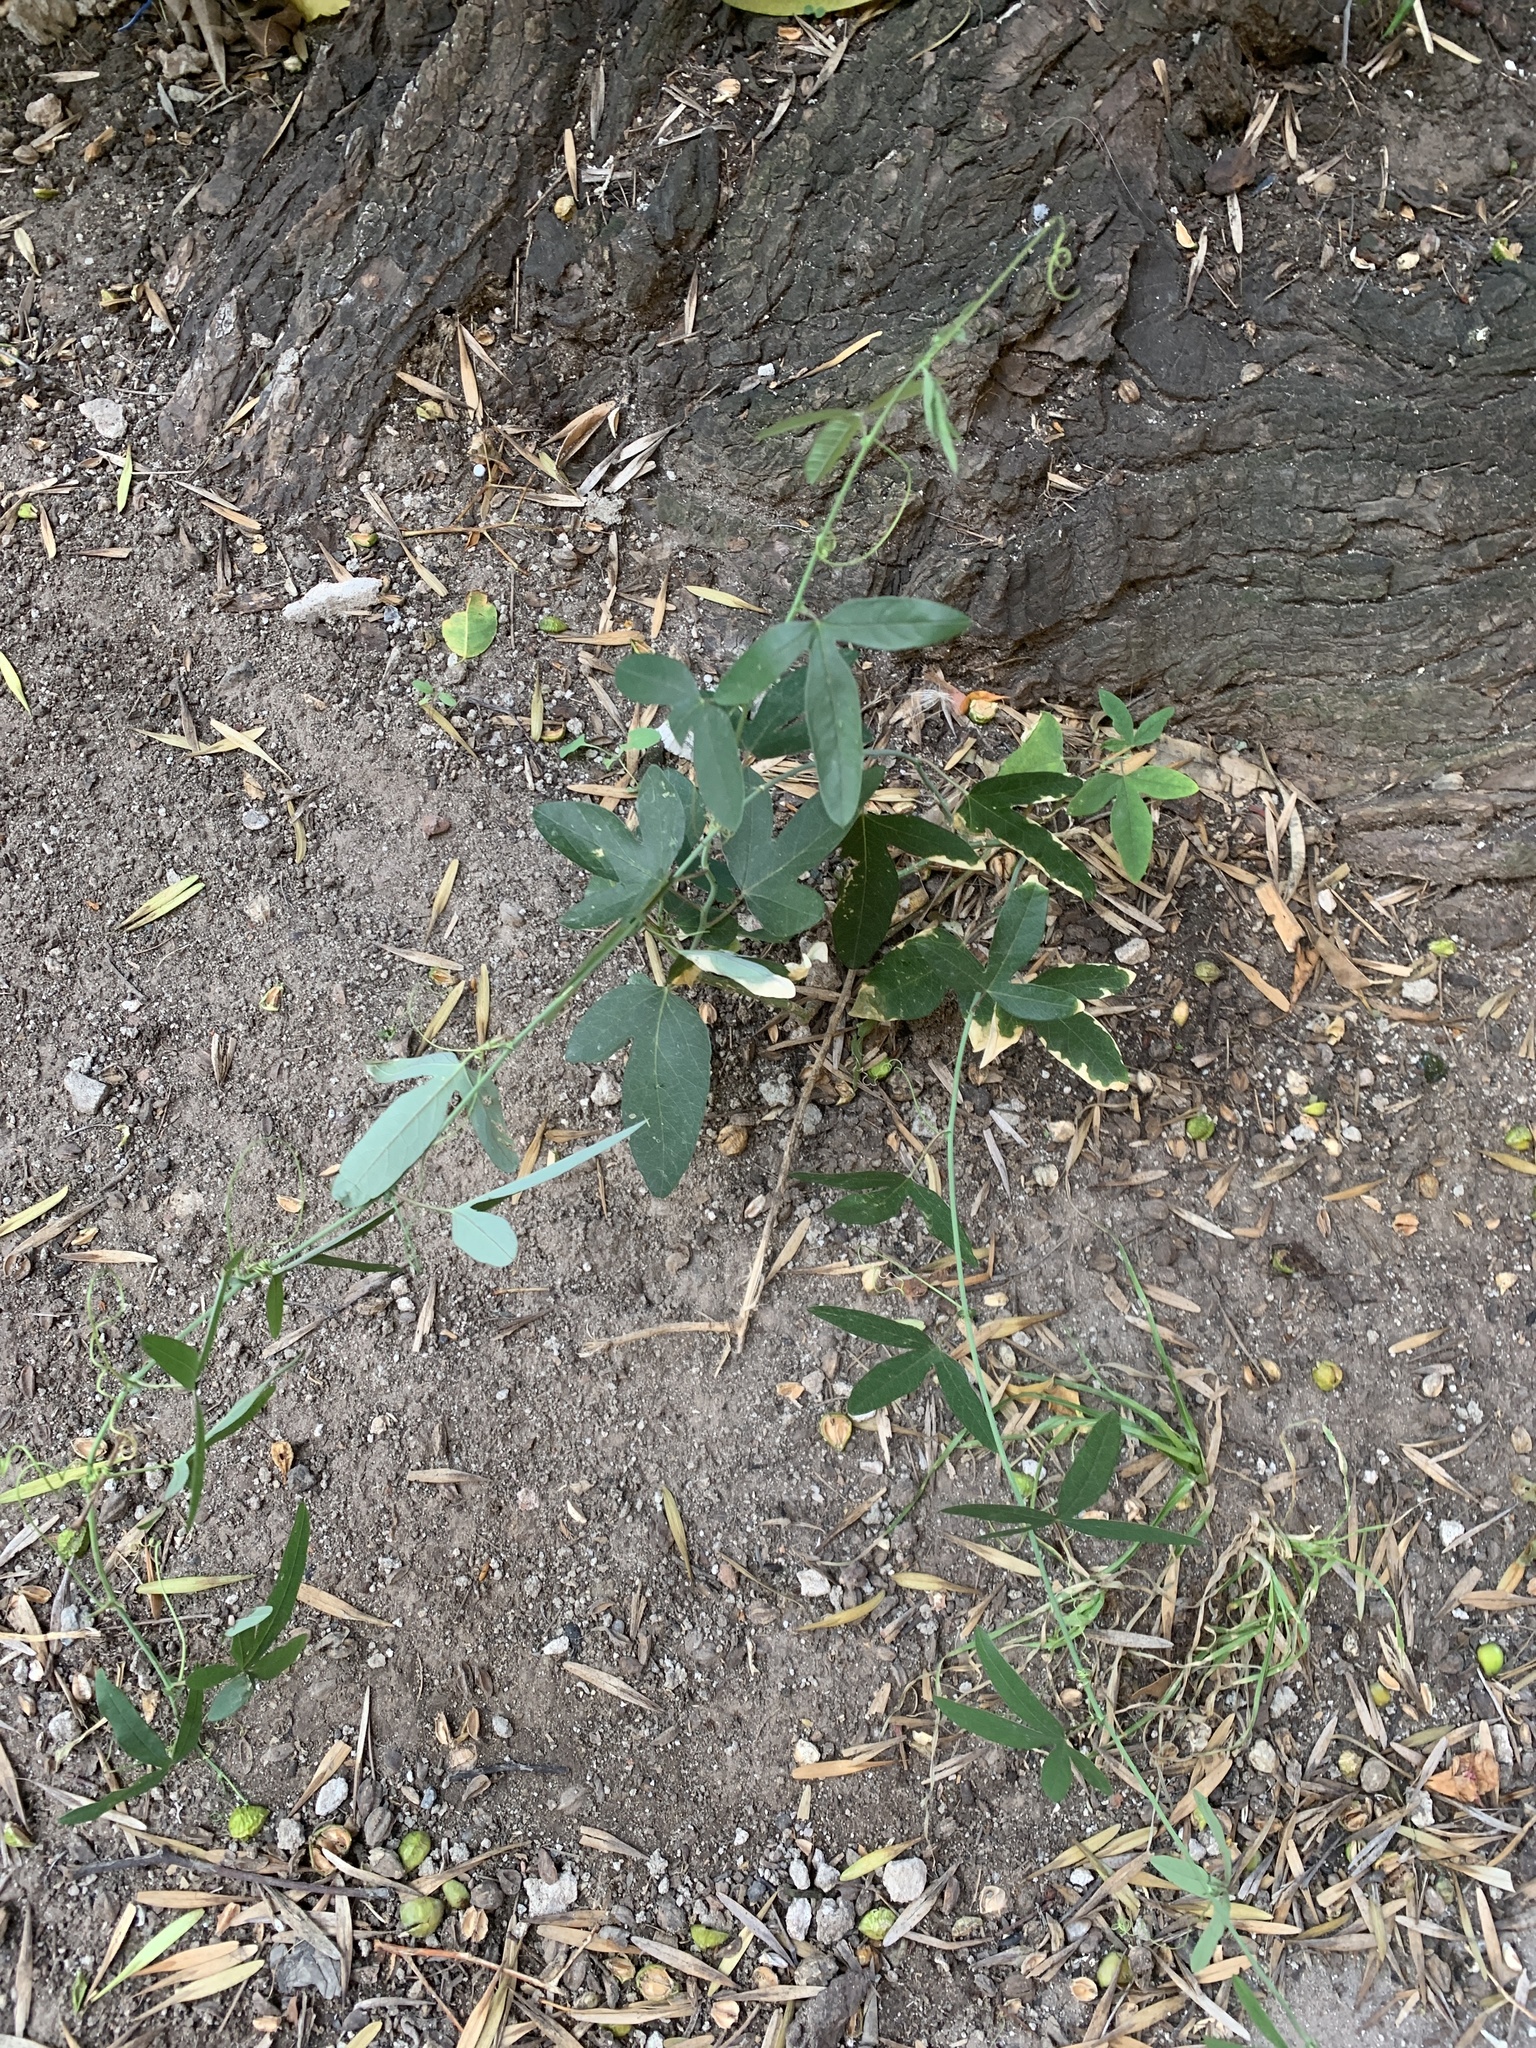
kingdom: Plantae
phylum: Tracheophyta
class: Magnoliopsida
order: Malpighiales
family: Passifloraceae
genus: Passiflora
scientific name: Passiflora caerulea
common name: Blue passionflower
